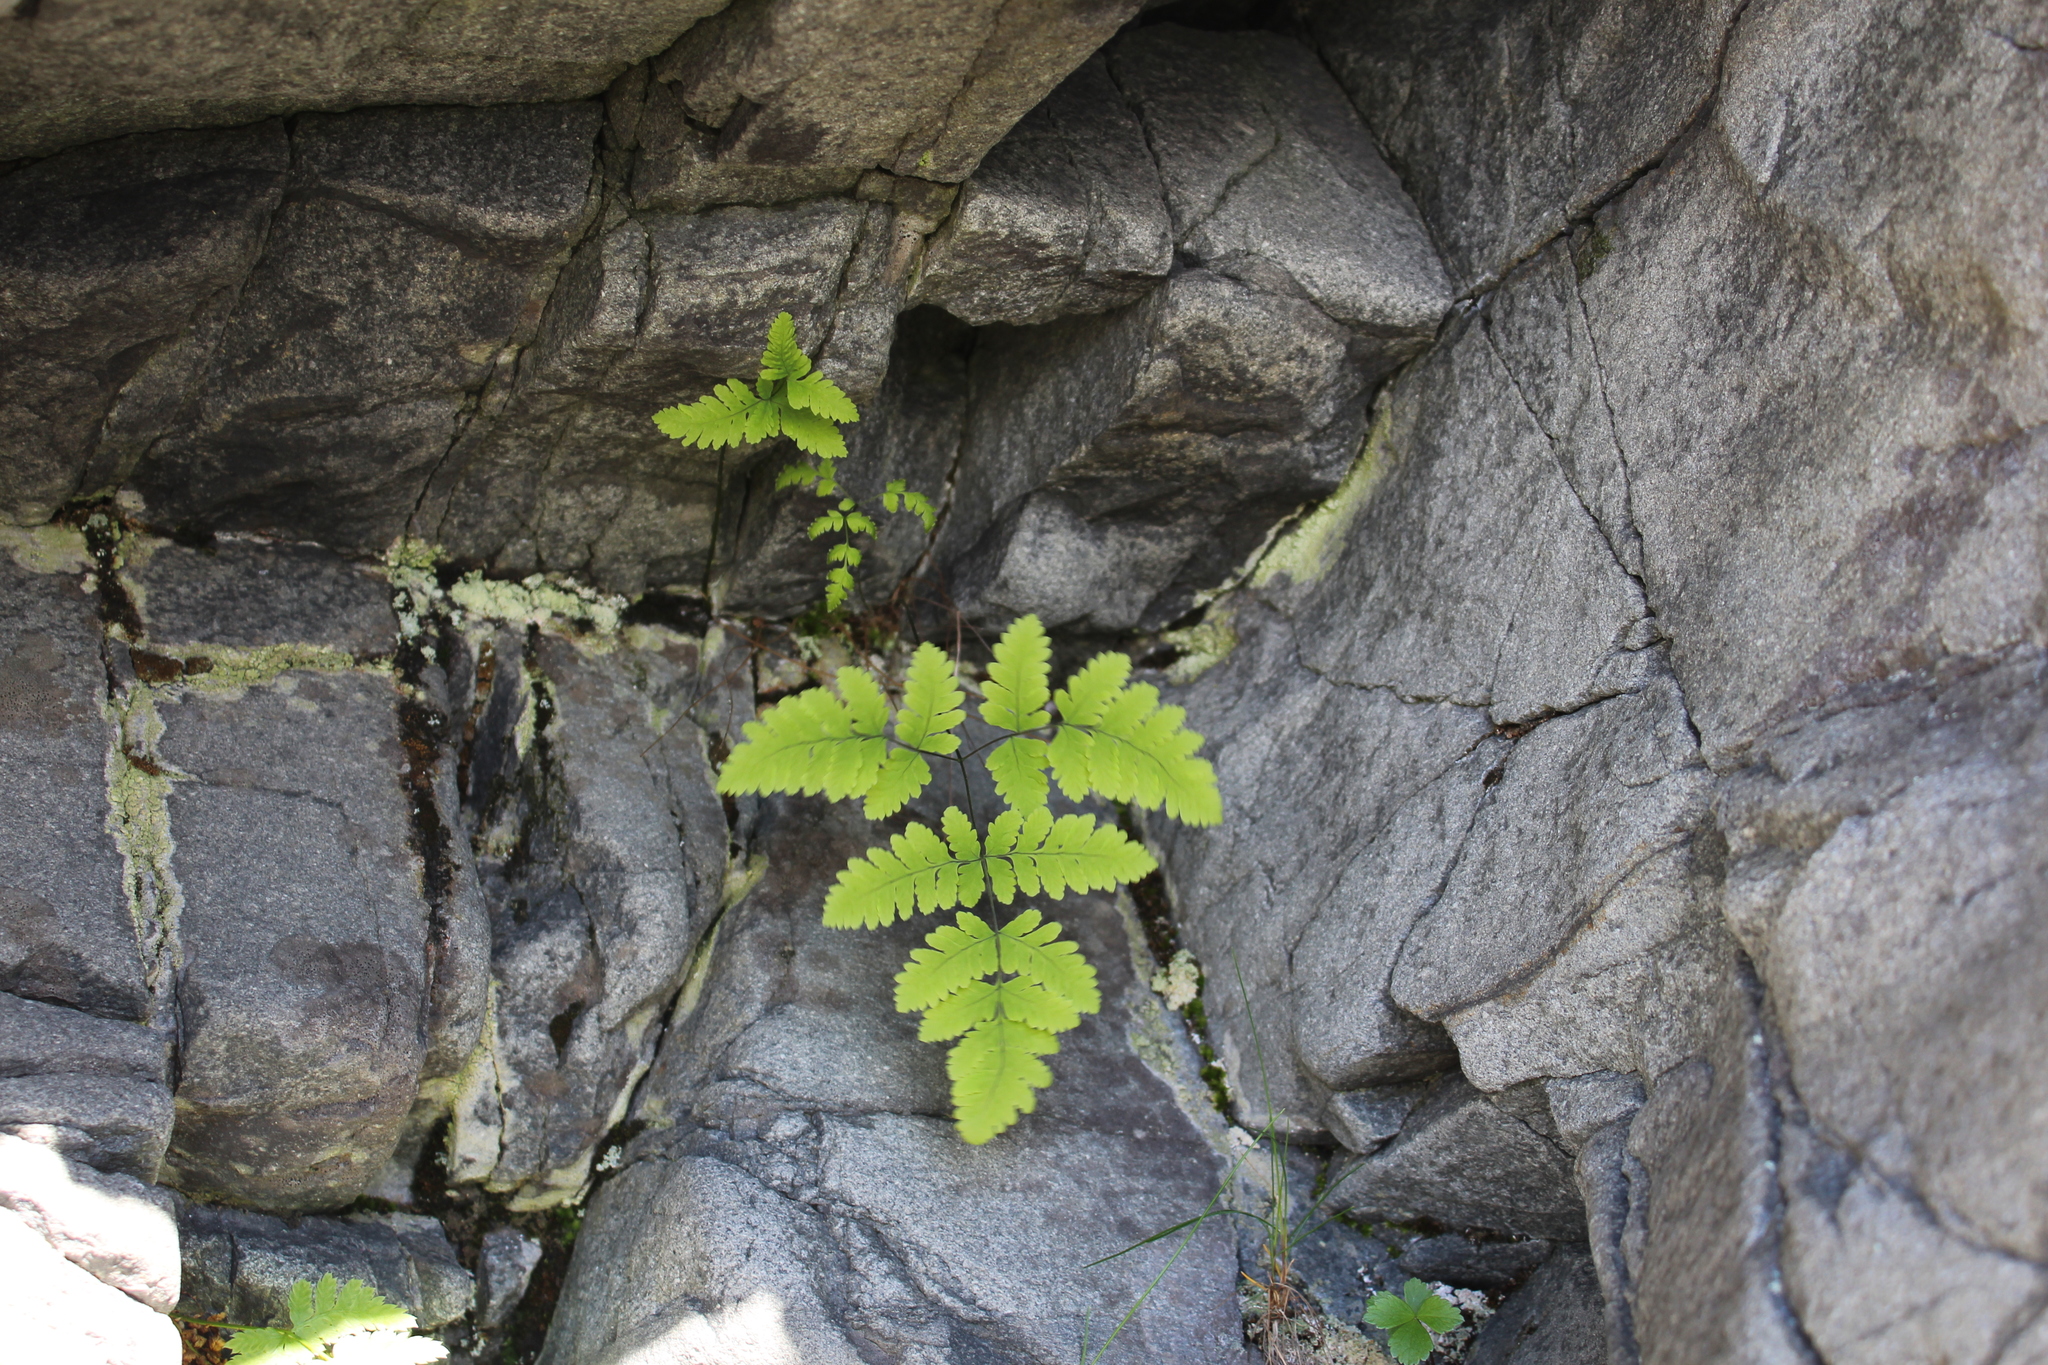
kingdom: Plantae
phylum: Tracheophyta
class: Polypodiopsida
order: Polypodiales
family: Cystopteridaceae
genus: Gymnocarpium
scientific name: Gymnocarpium dryopteris
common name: Oak fern
